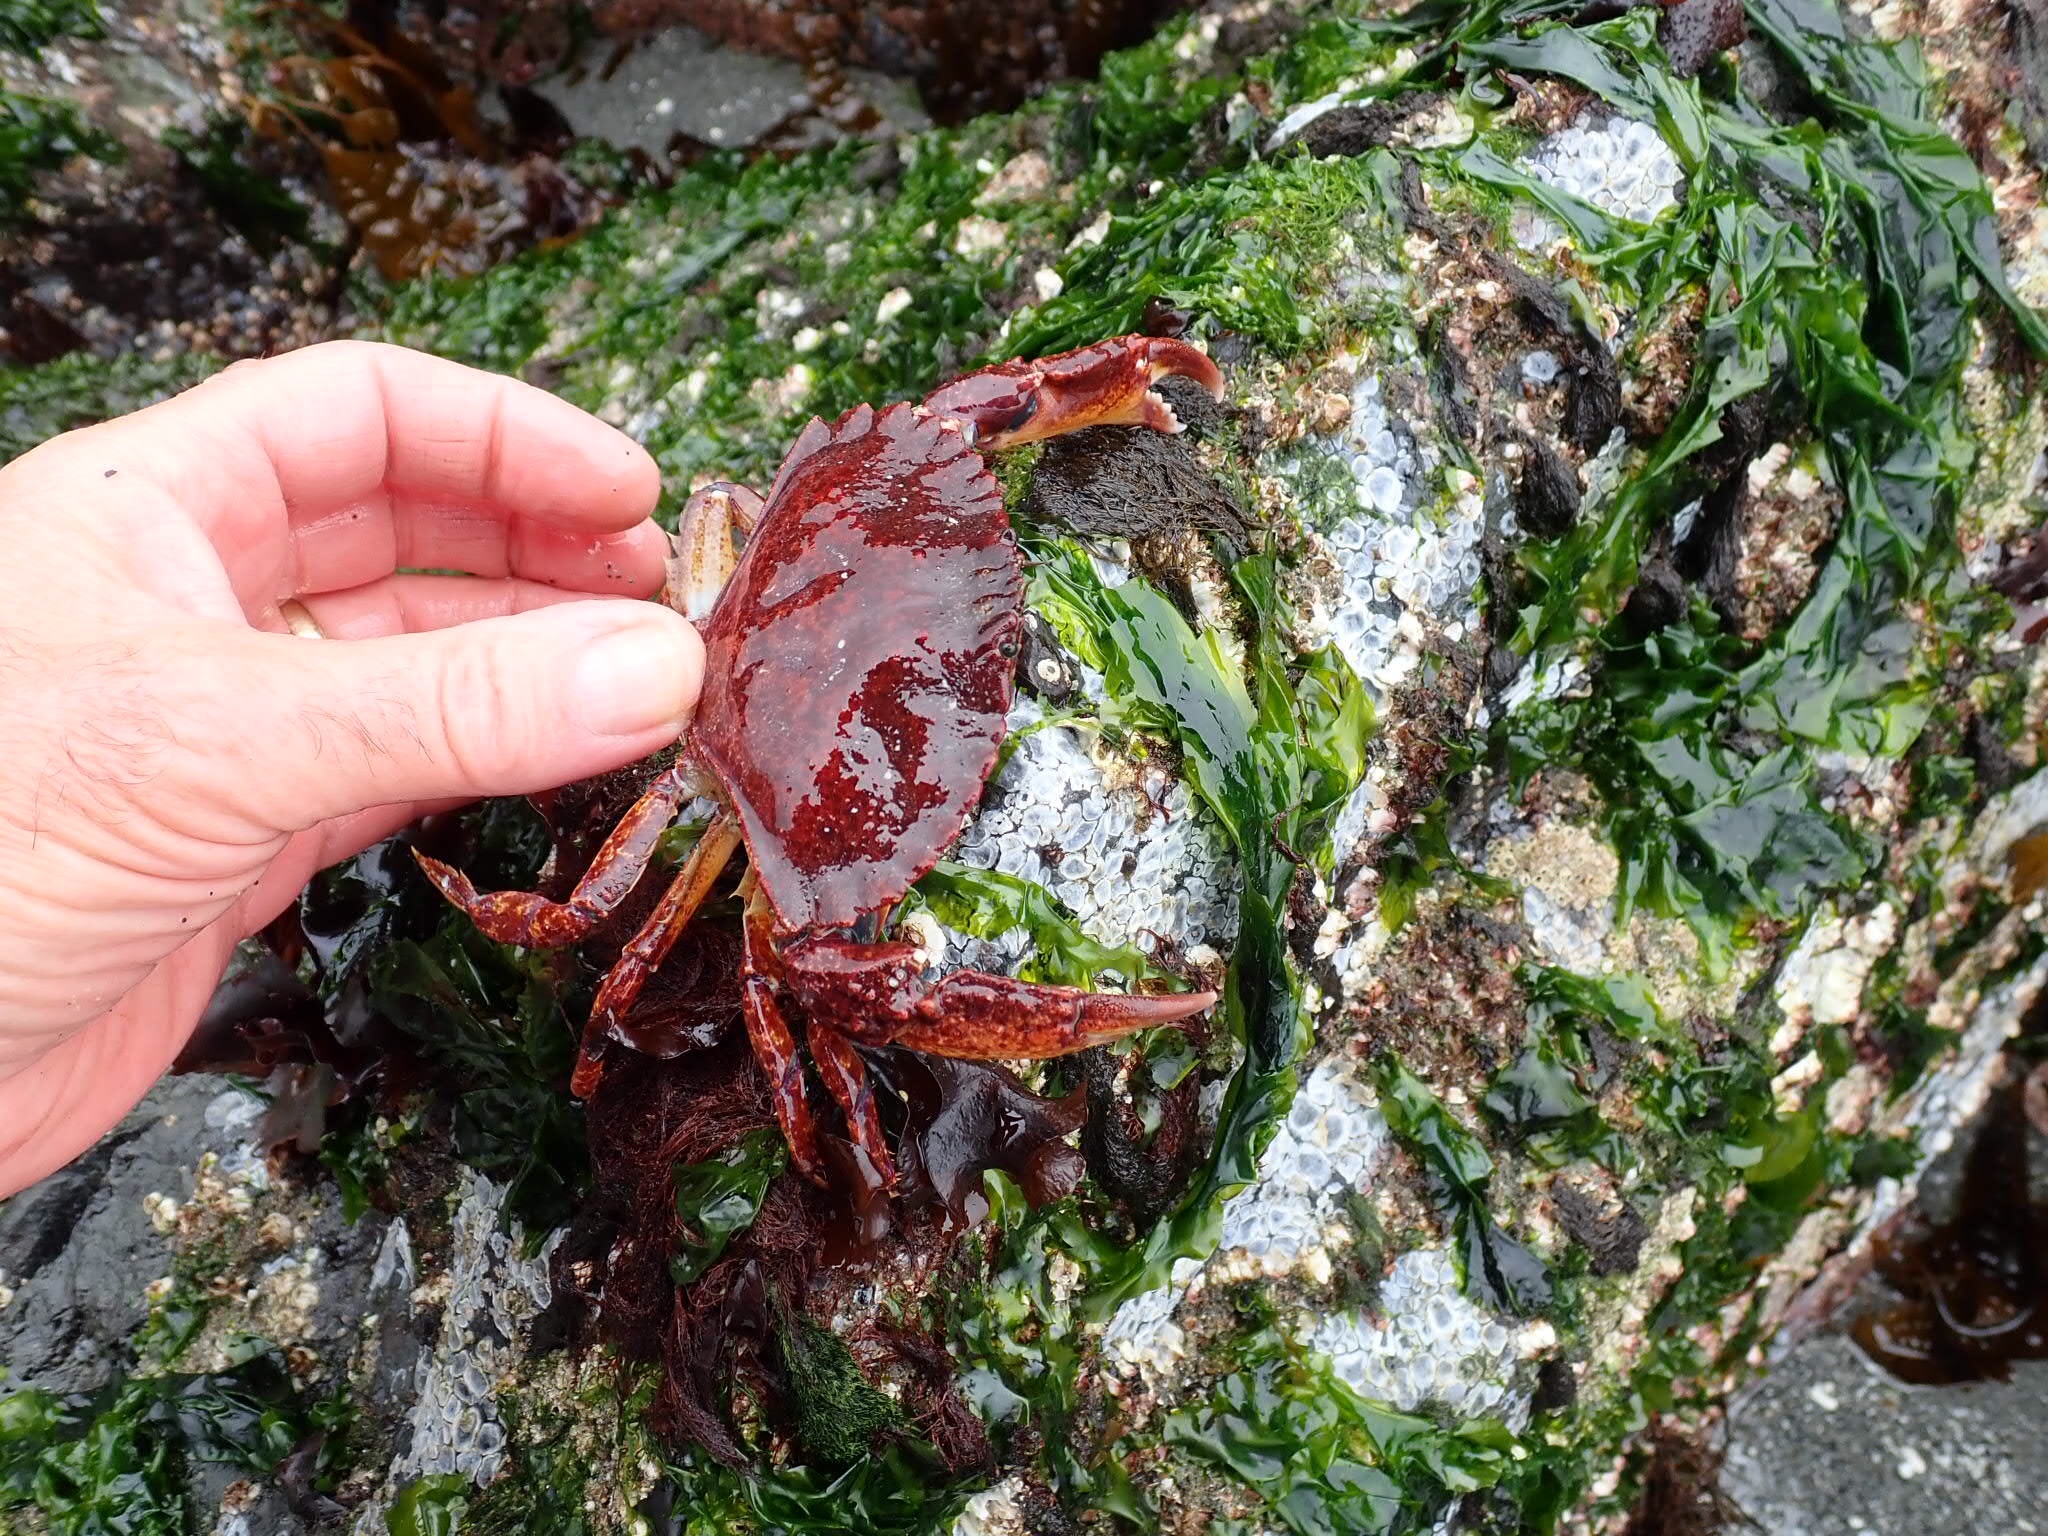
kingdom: Animalia
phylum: Arthropoda
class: Malacostraca
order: Decapoda
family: Cancridae
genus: Cancer
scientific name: Cancer productus
